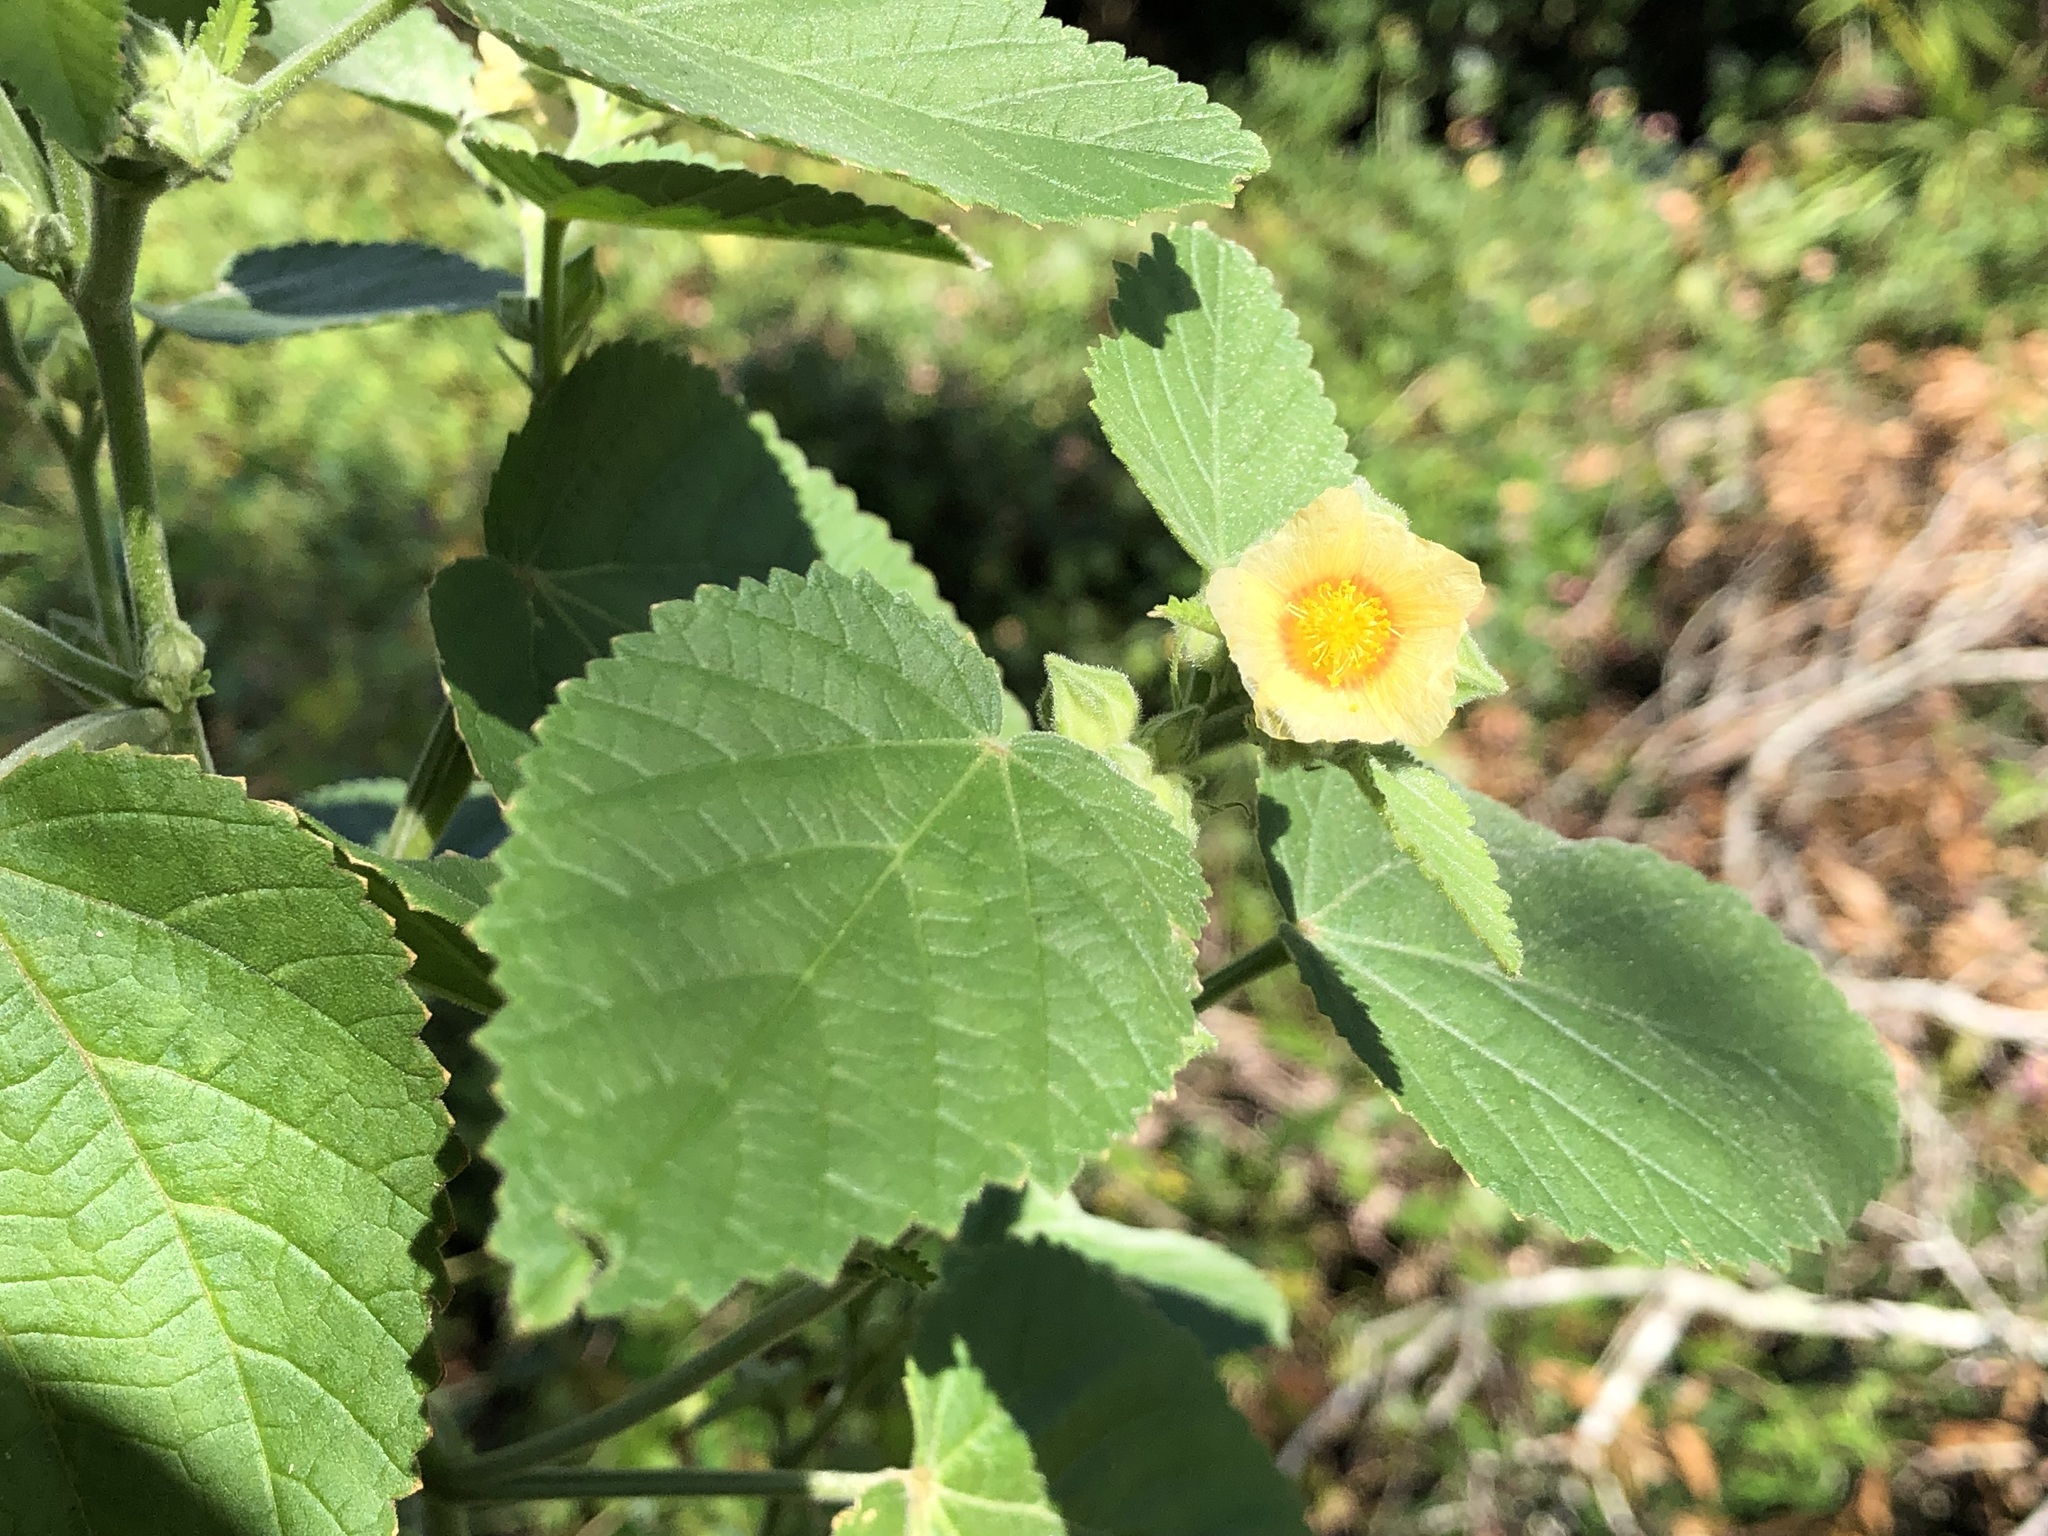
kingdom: Plantae
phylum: Tracheophyta
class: Magnoliopsida
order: Malvales
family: Malvaceae
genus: Sida
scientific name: Sida cordifolia
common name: Ilima
